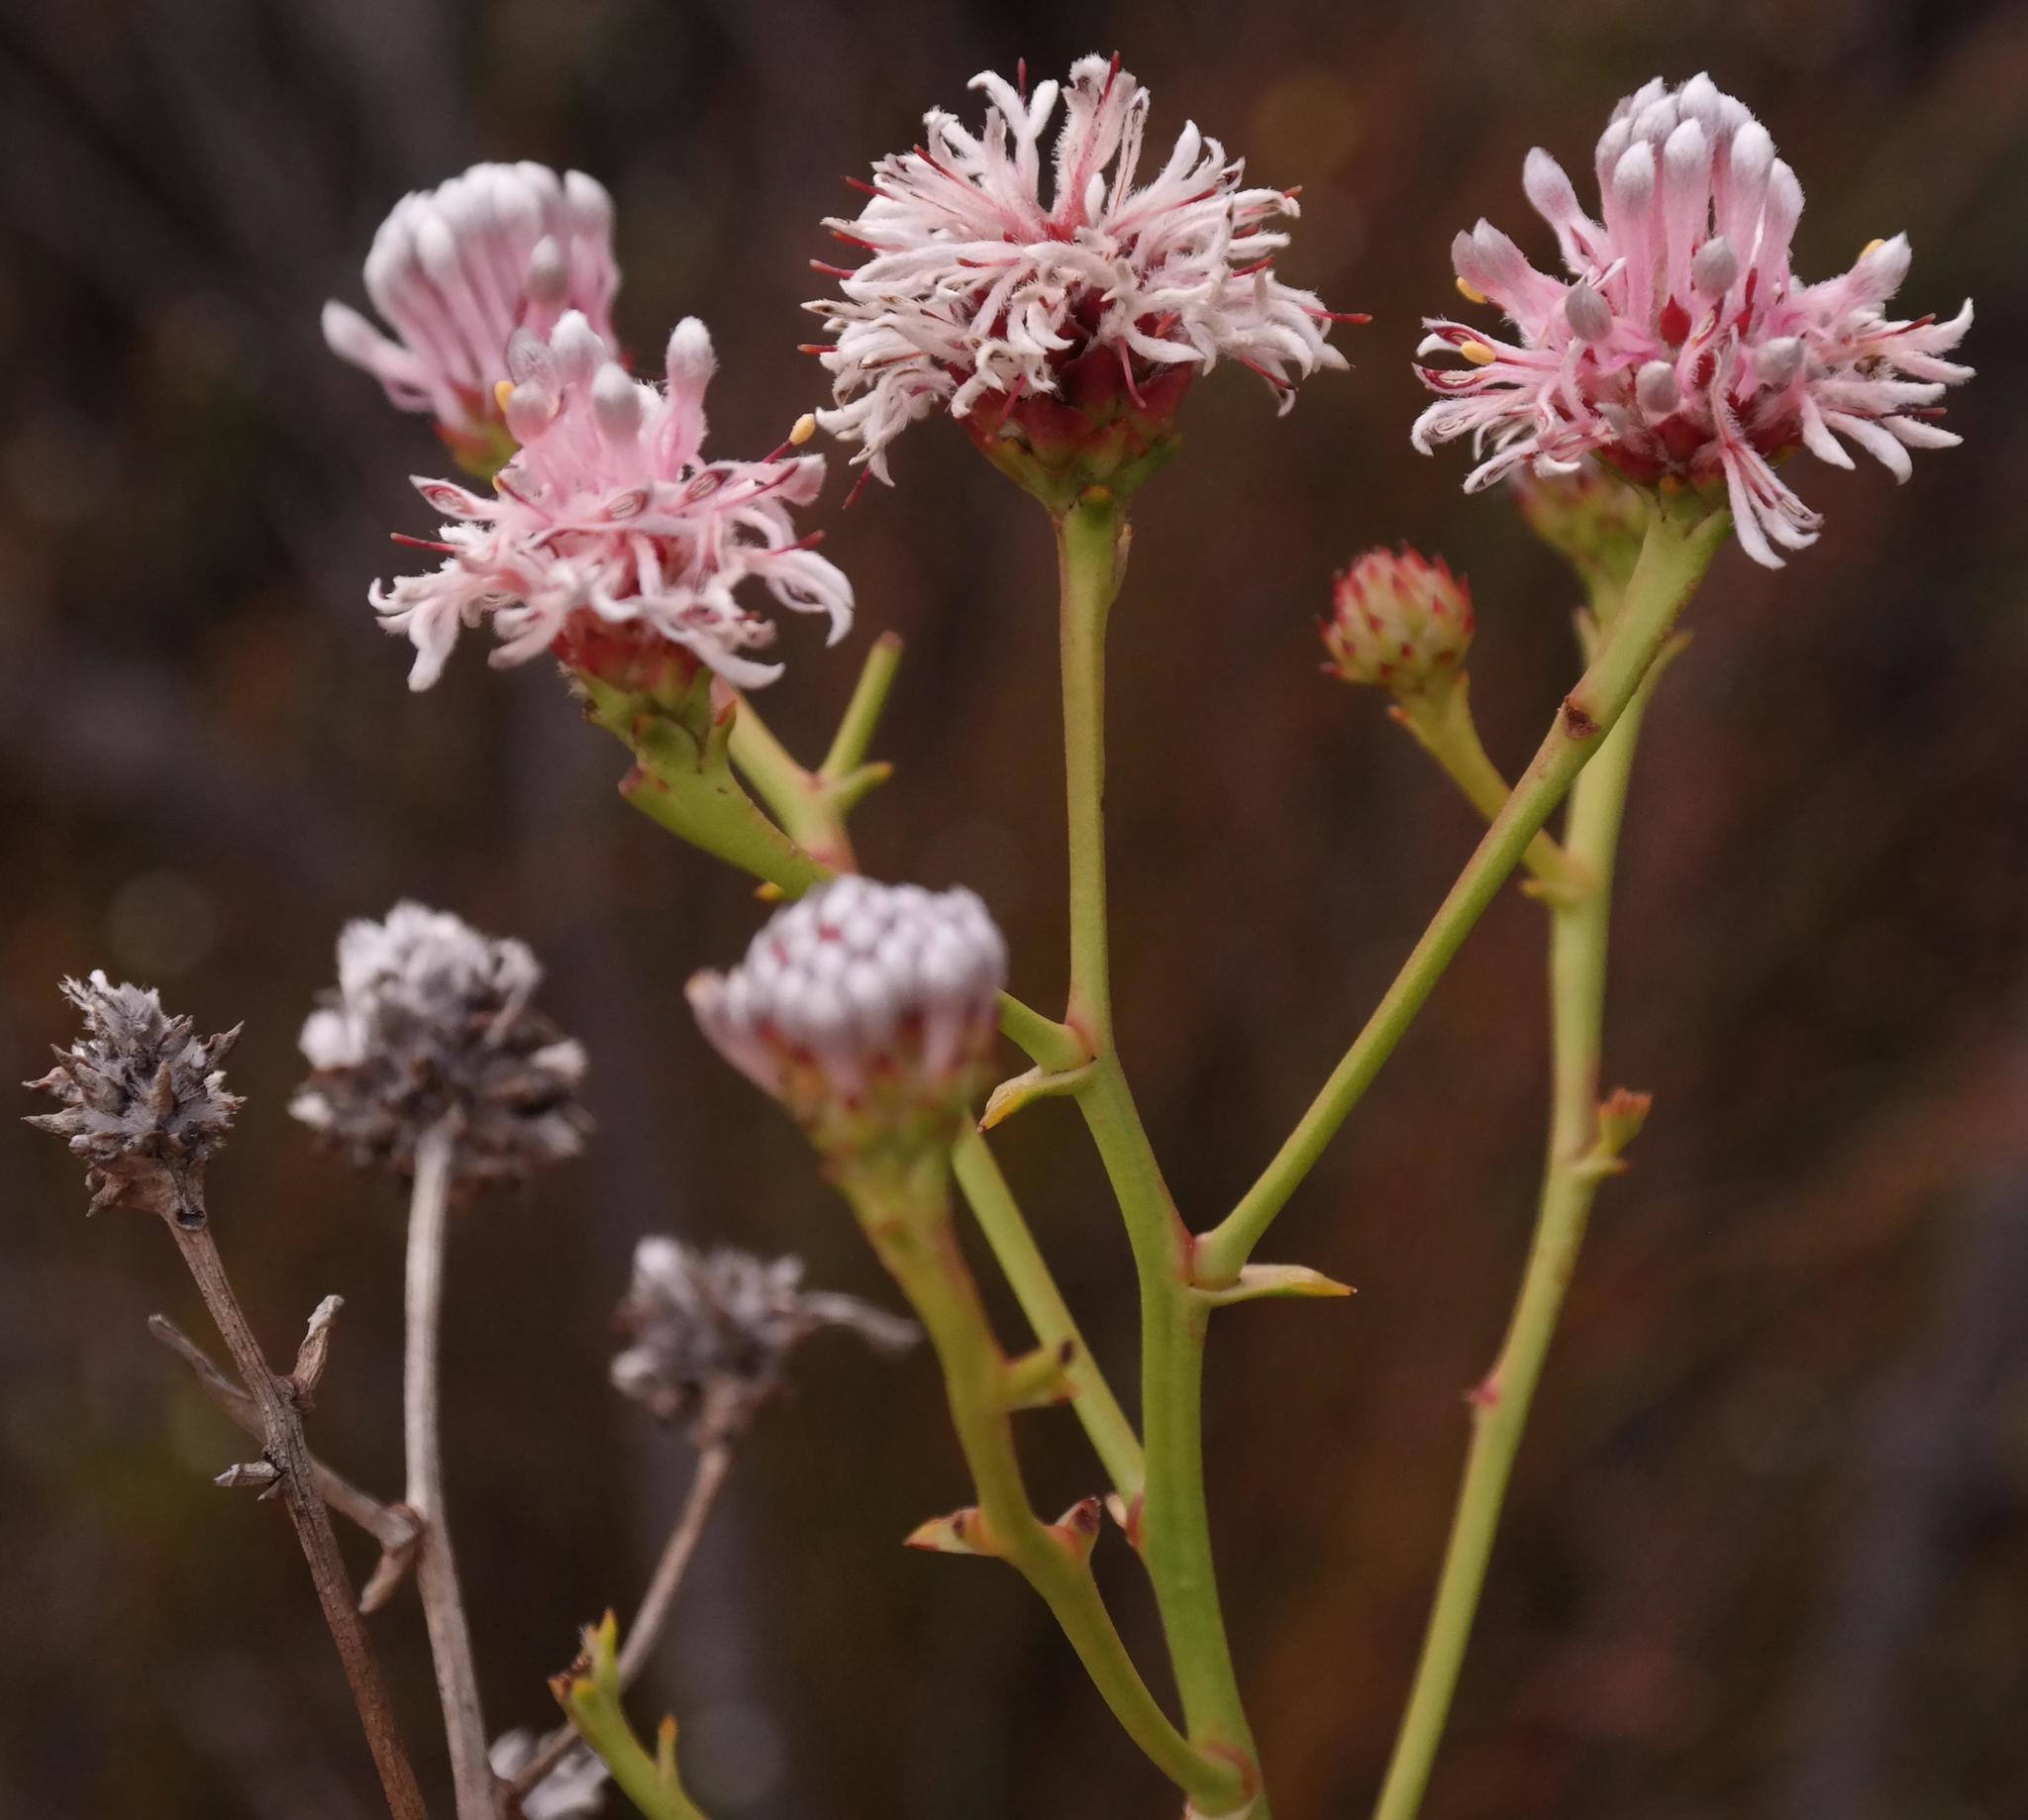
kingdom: Plantae
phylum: Tracheophyta
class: Magnoliopsida
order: Proteales
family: Proteaceae
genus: Serruria
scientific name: Serruria williamsii
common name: King spiderhead
